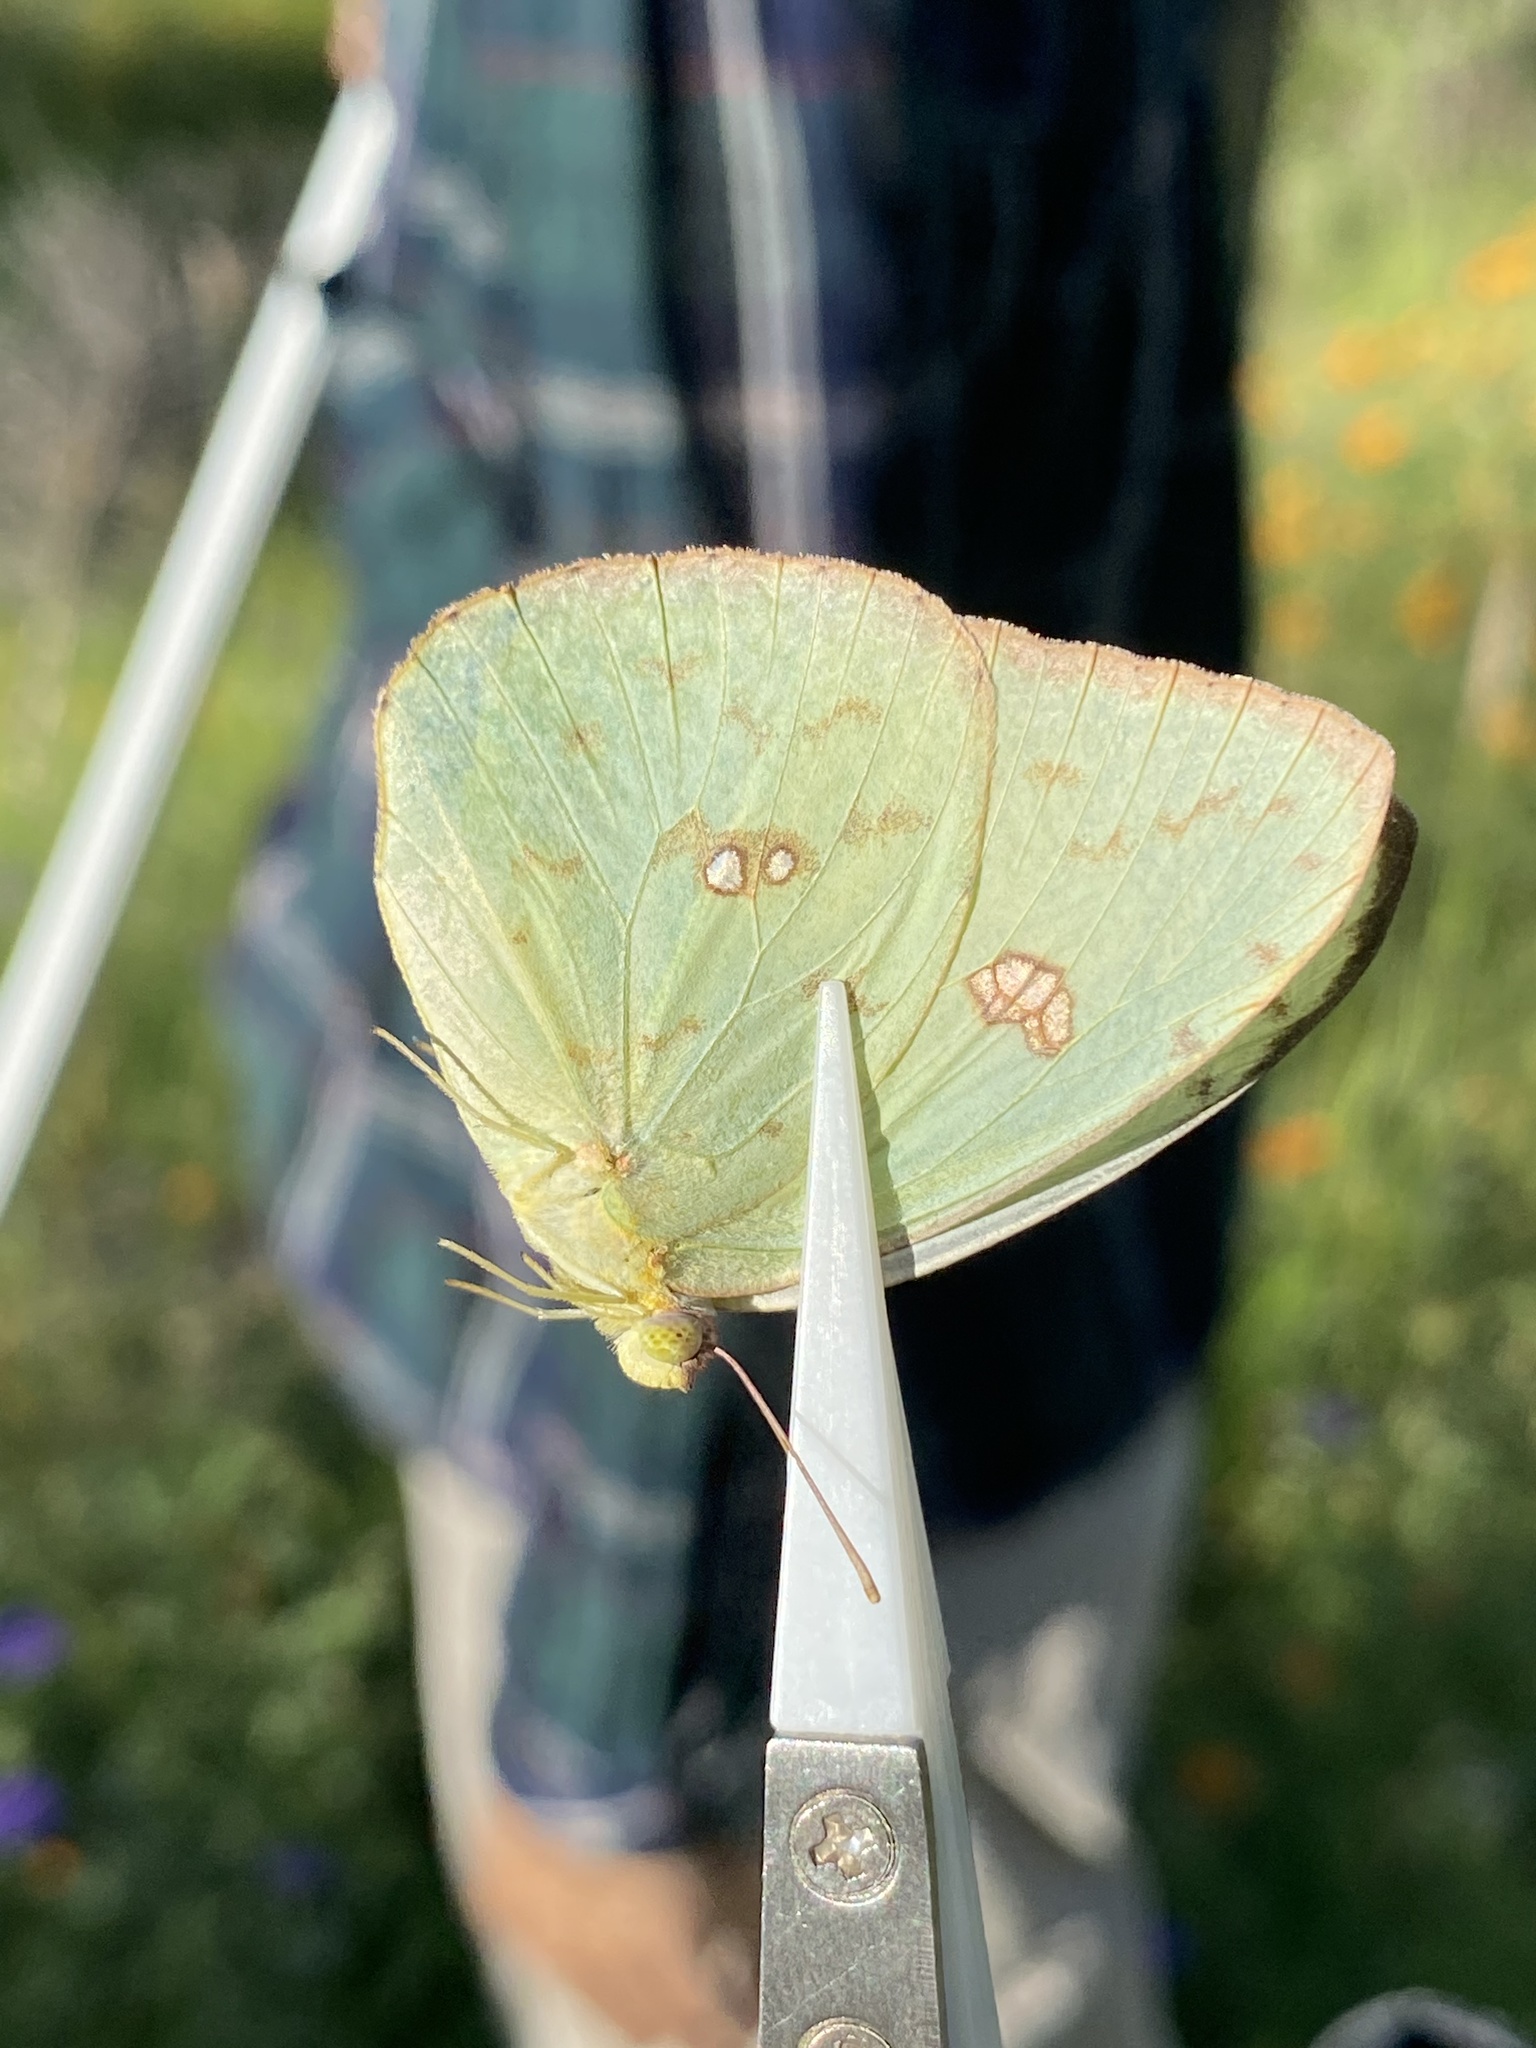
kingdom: Animalia
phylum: Arthropoda
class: Insecta
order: Lepidoptera
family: Pieridae
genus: Phoebis
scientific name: Phoebis marcellina
